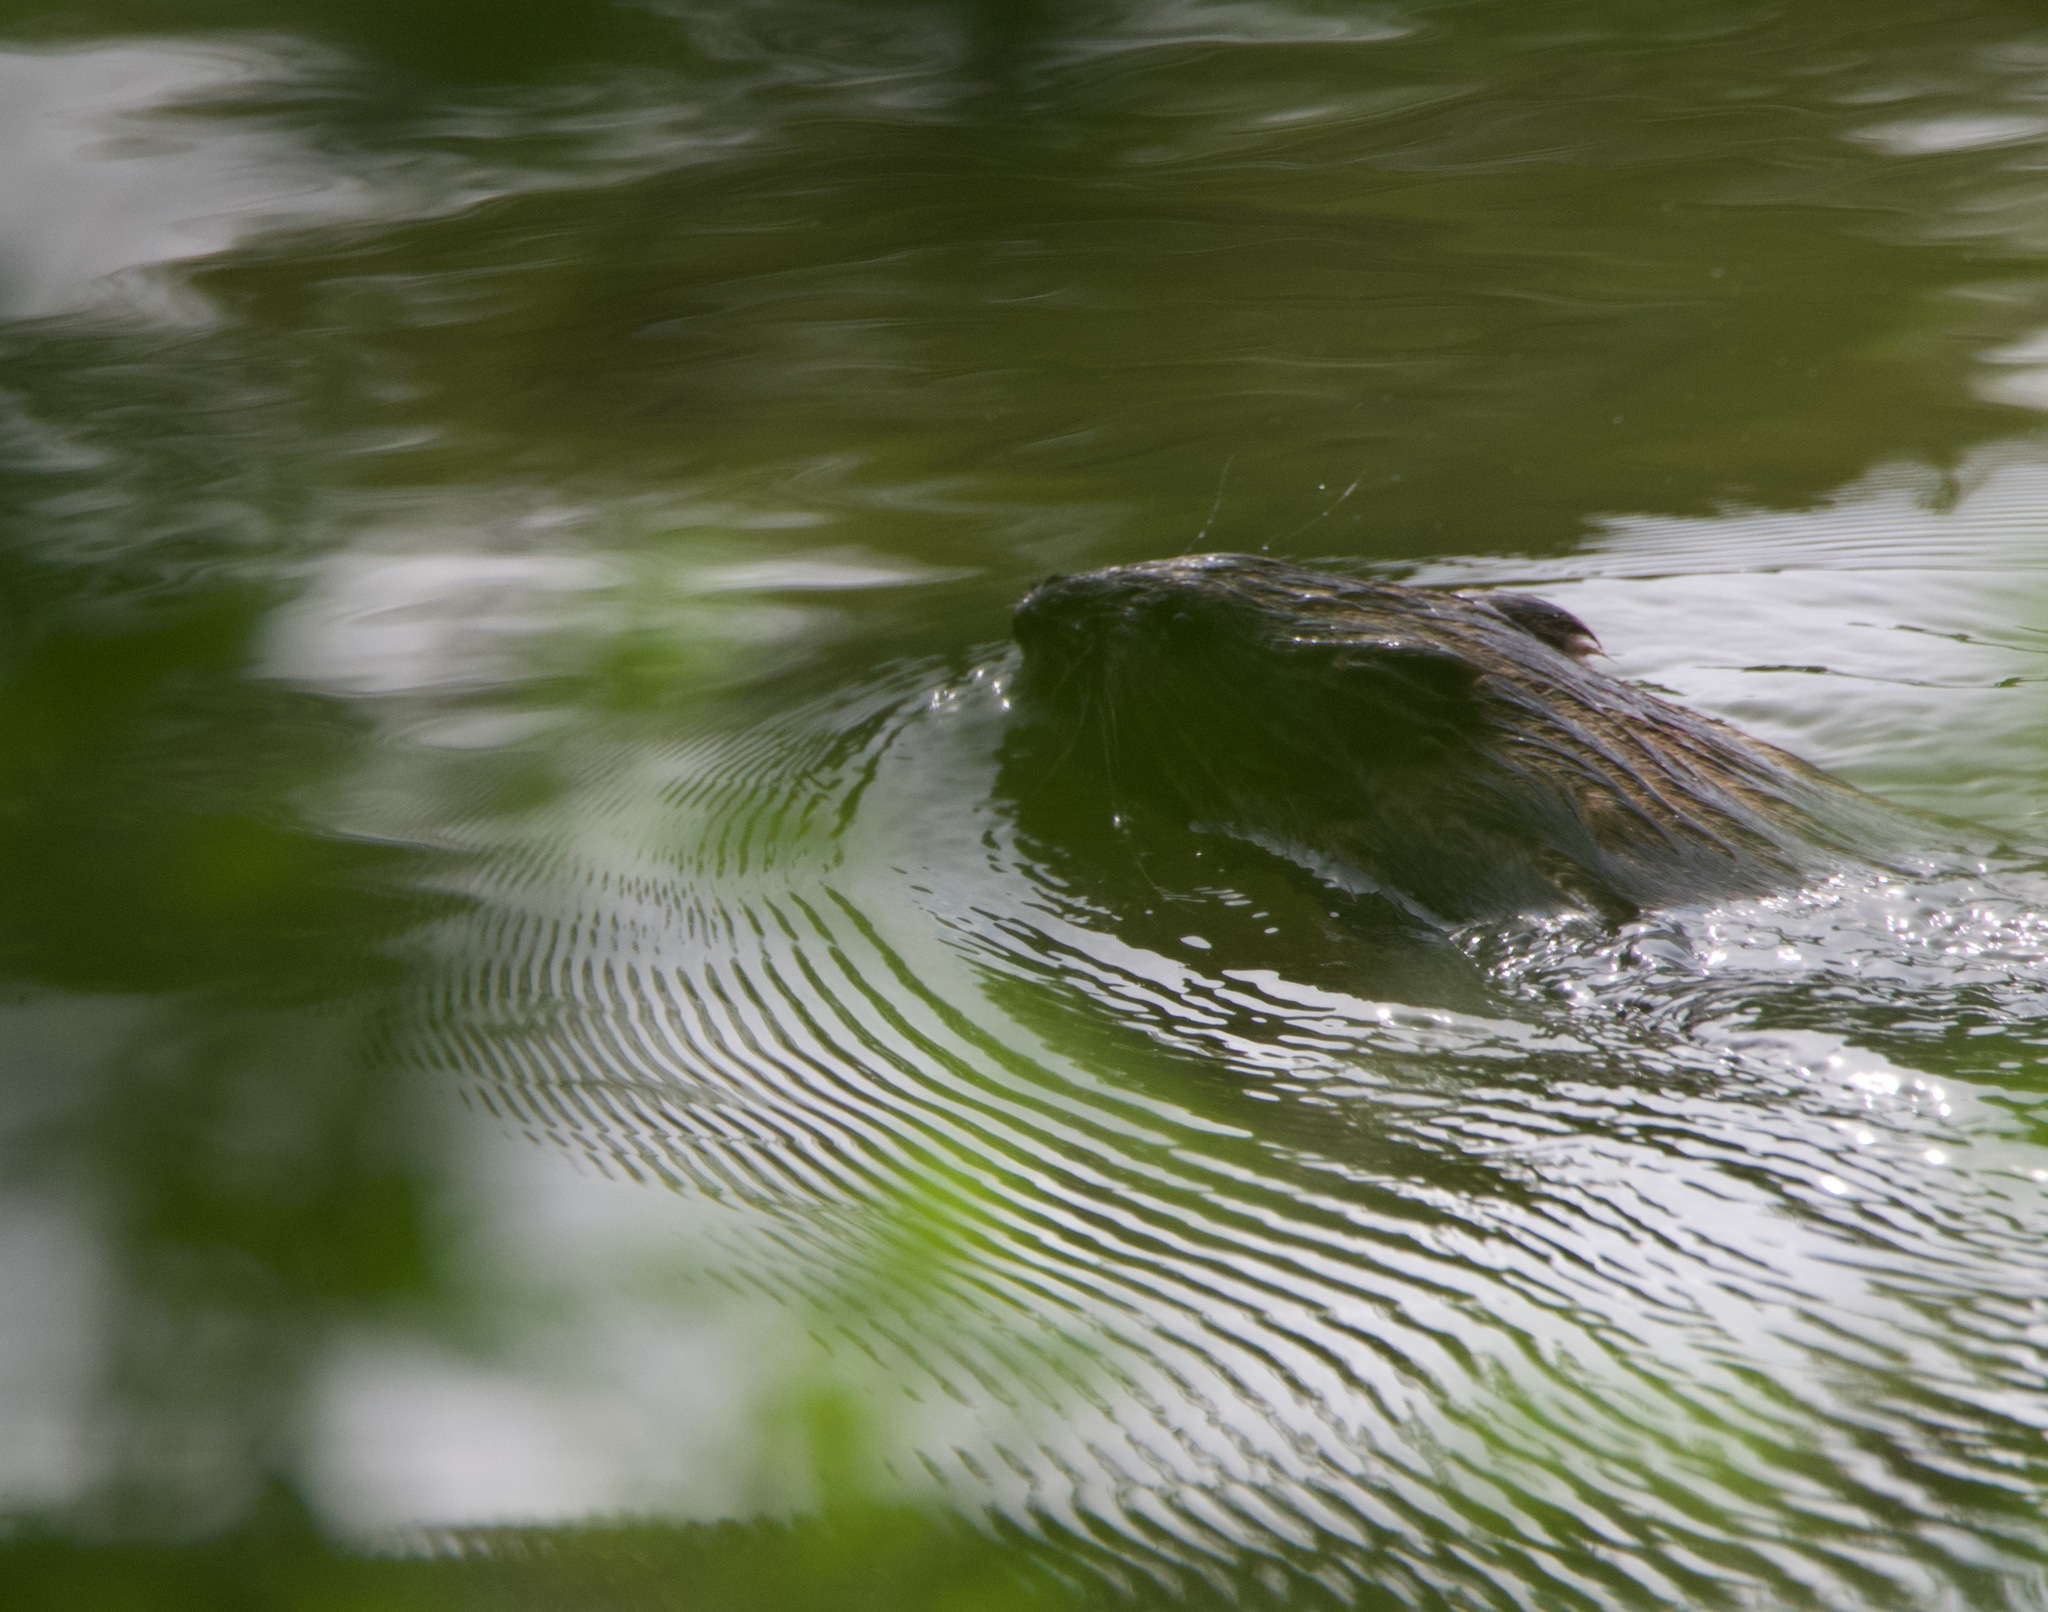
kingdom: Animalia
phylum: Chordata
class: Mammalia
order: Rodentia
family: Cricetidae
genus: Ondatra
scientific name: Ondatra zibethicus
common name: Muskrat
